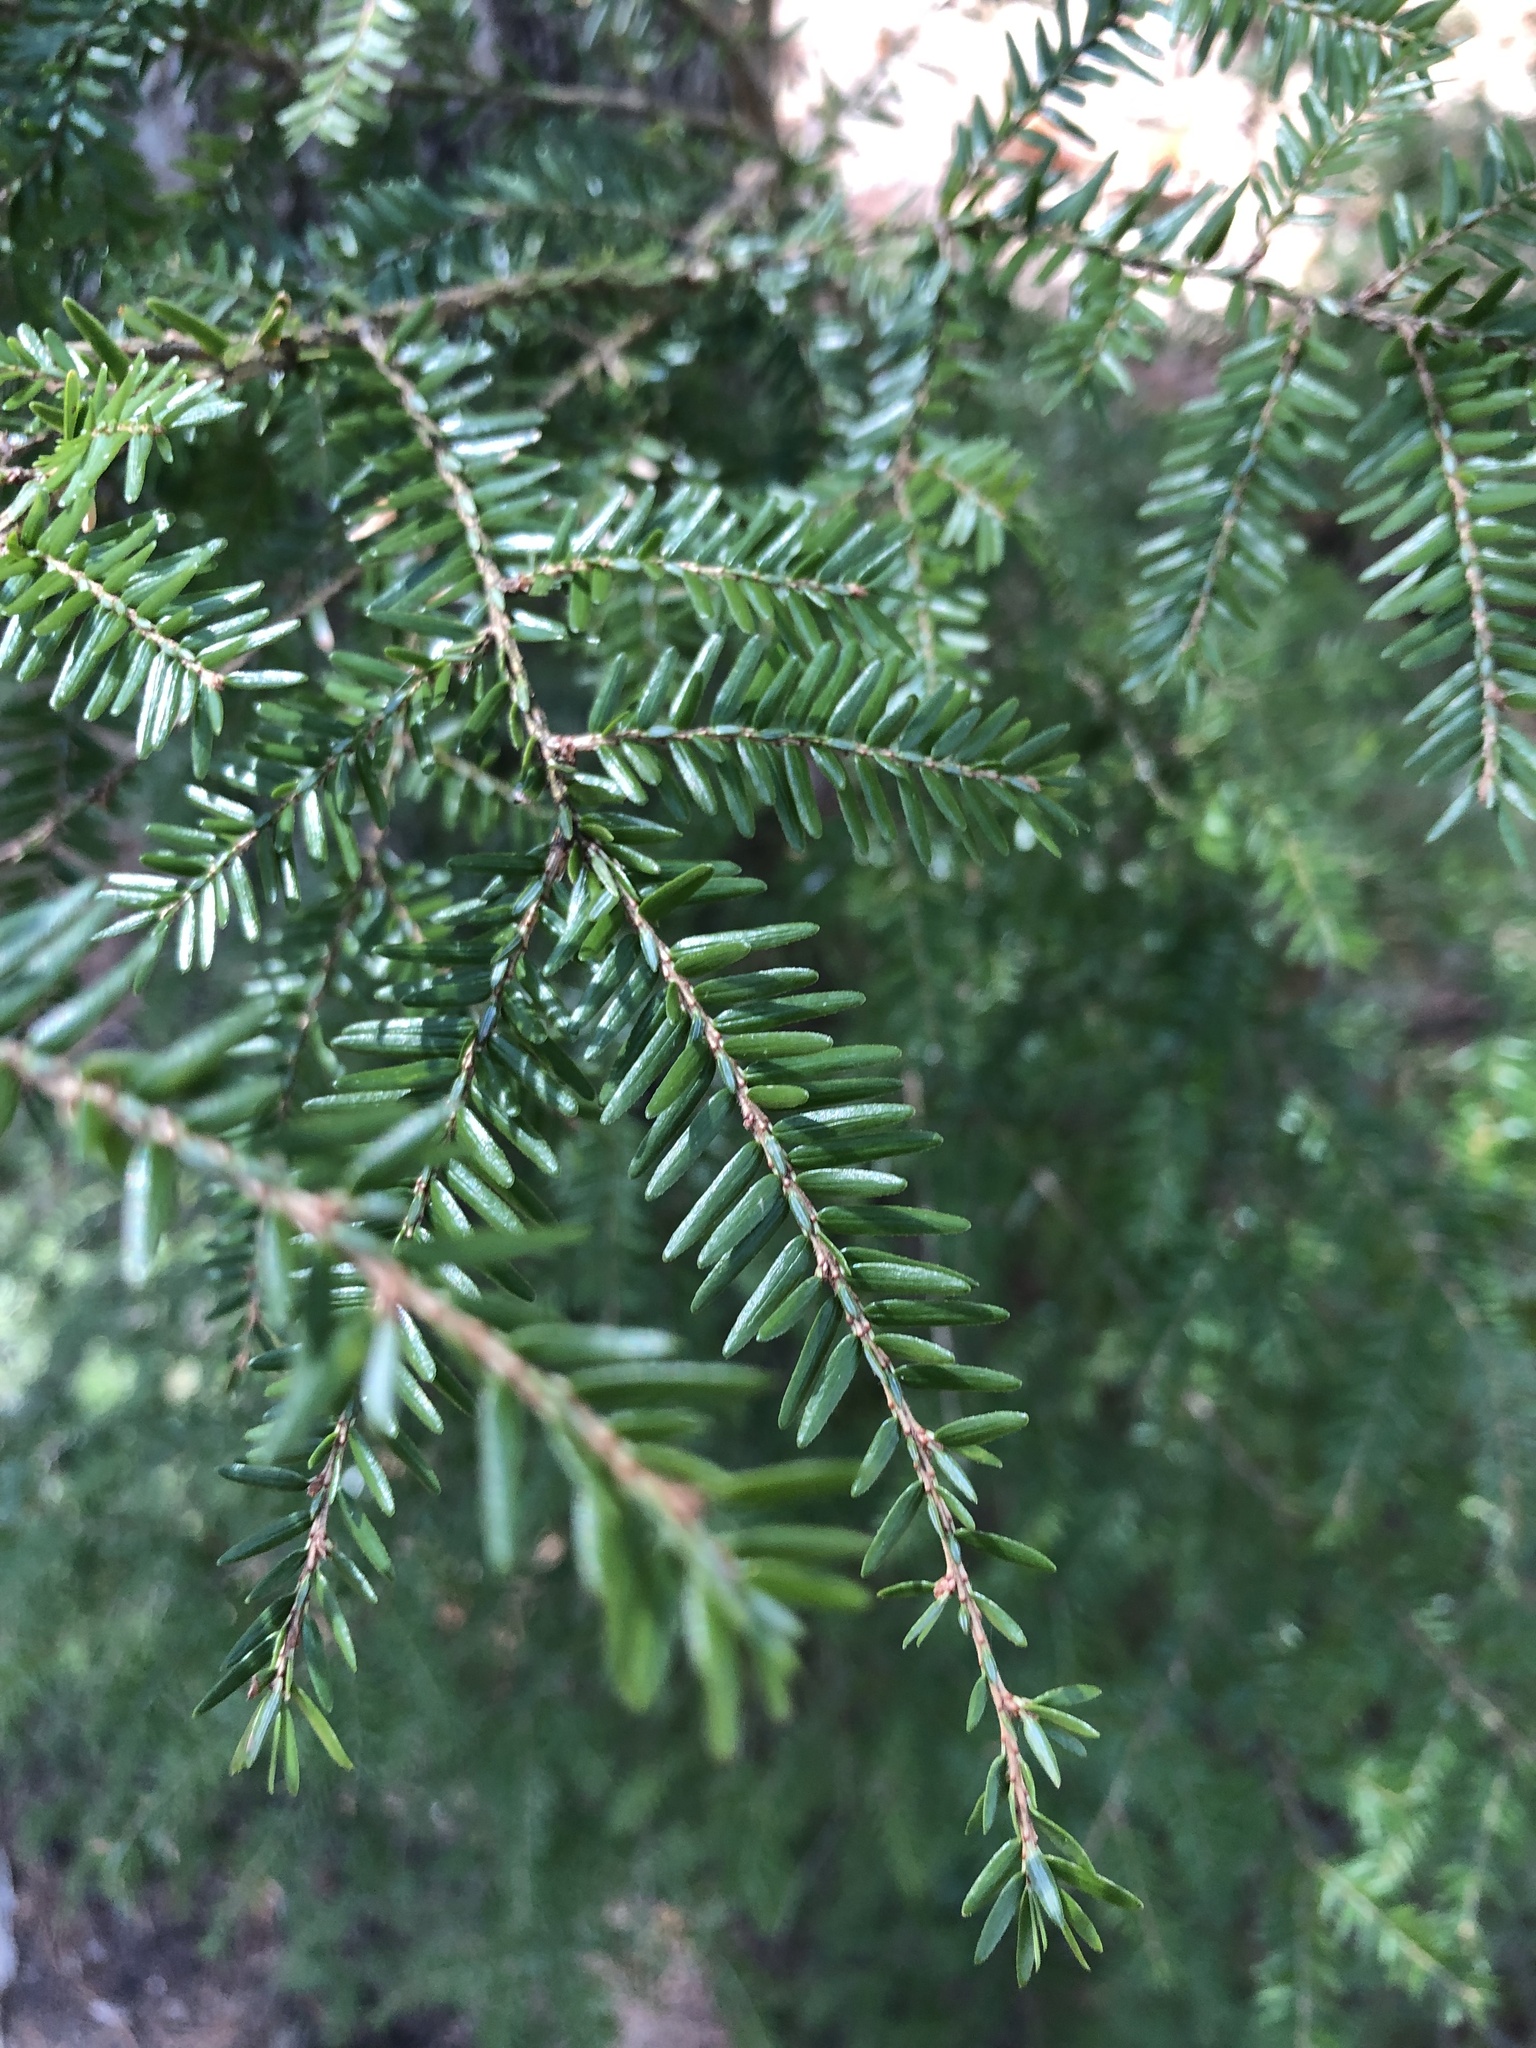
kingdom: Plantae
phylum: Tracheophyta
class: Pinopsida
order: Pinales
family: Pinaceae
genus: Tsuga
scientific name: Tsuga canadensis
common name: Eastern hemlock
